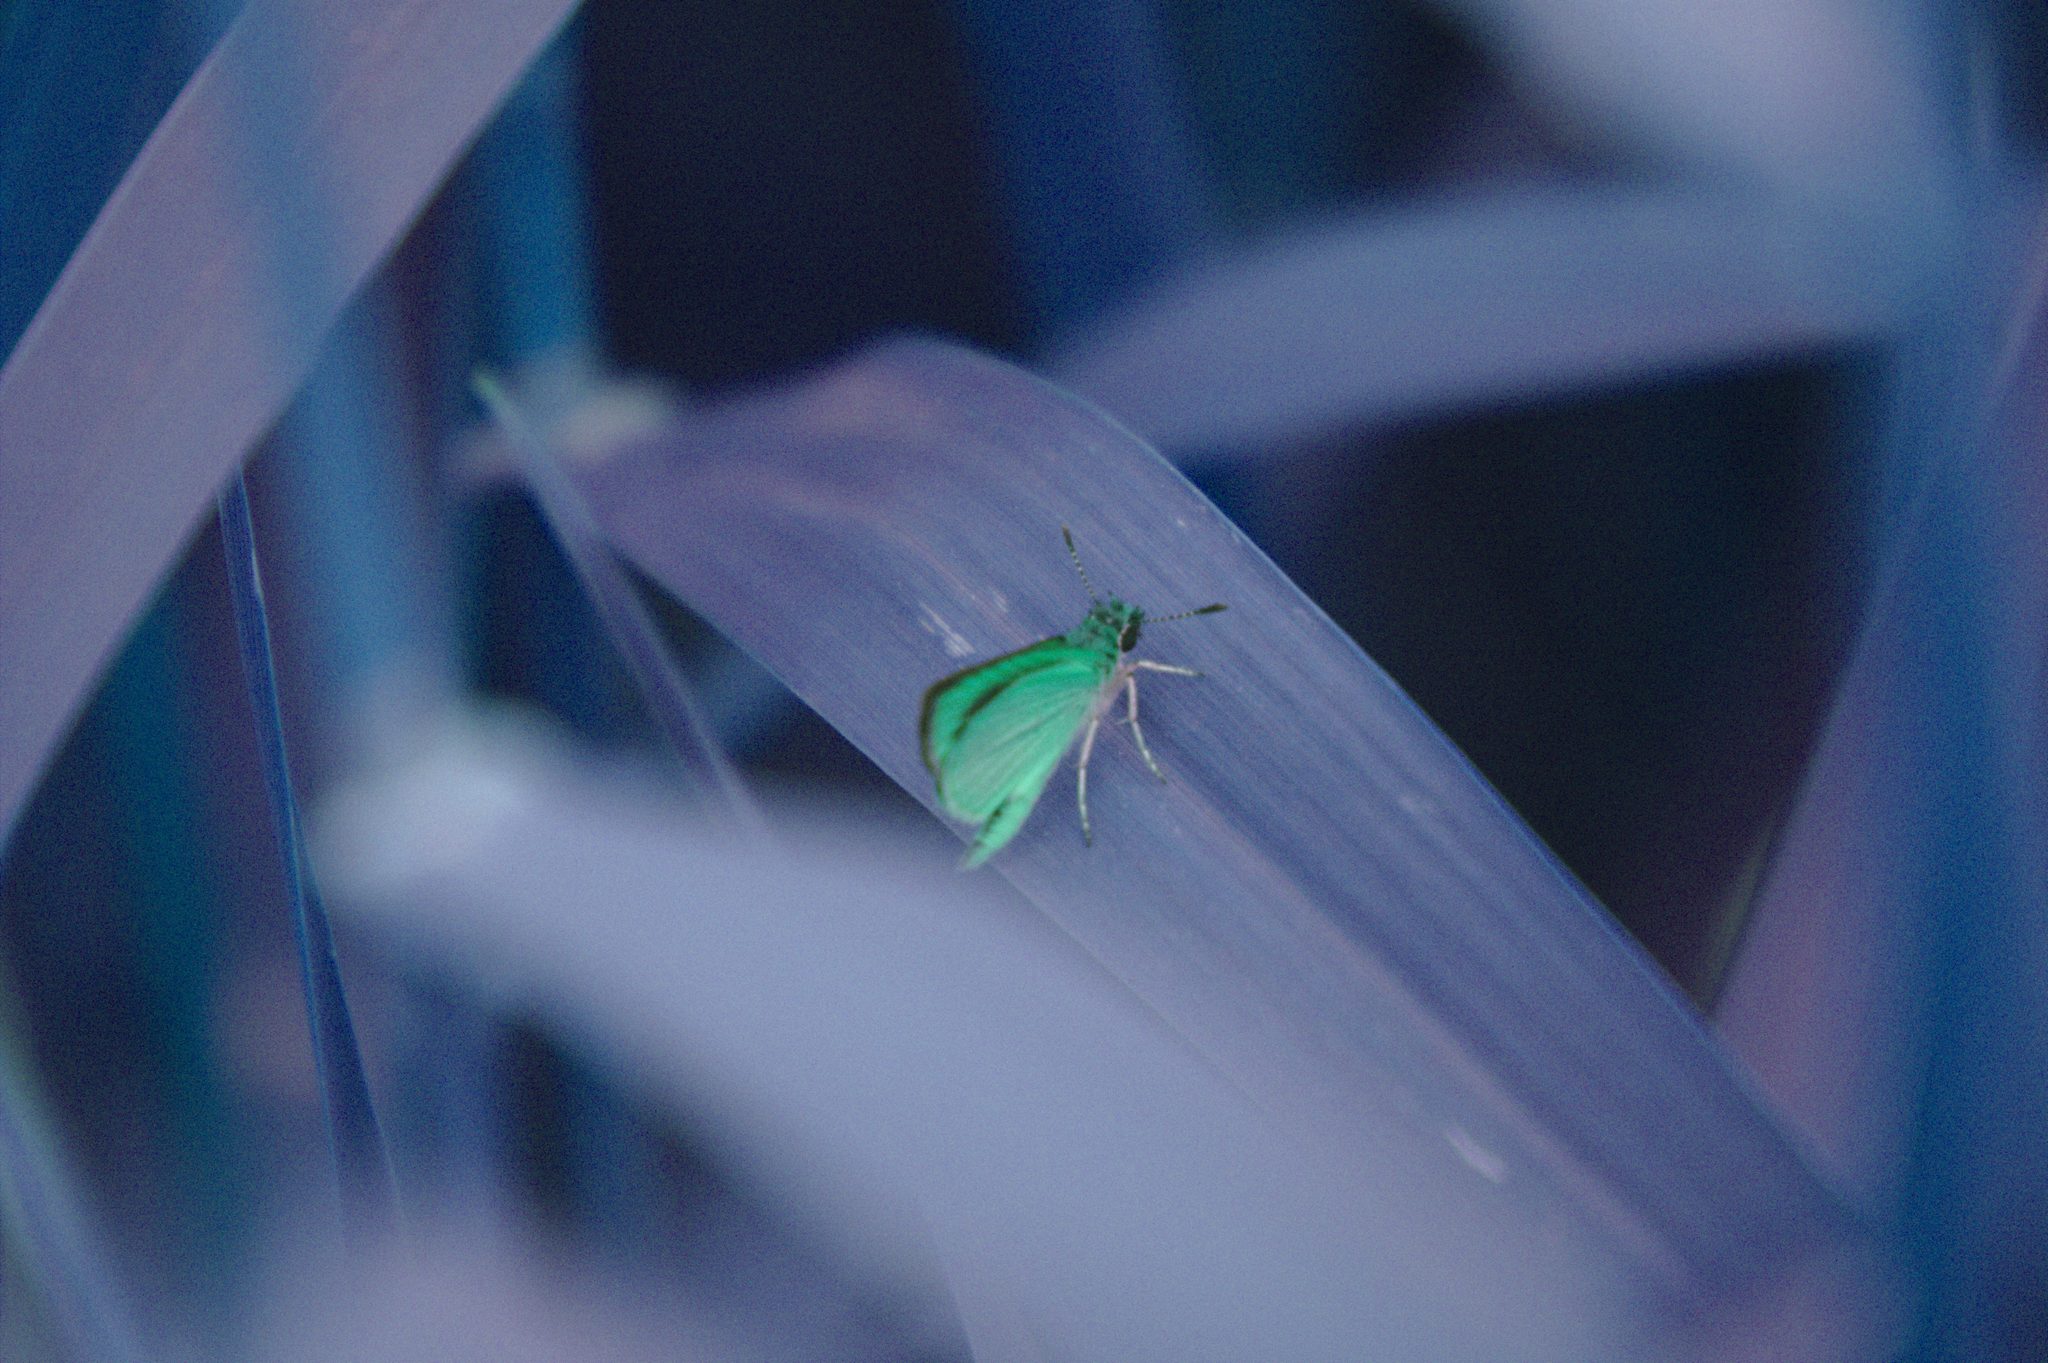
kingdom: Animalia
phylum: Arthropoda
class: Insecta
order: Lepidoptera
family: Hesperiidae
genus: Ancyloxypha
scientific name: Ancyloxypha numitor
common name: Least skipper
